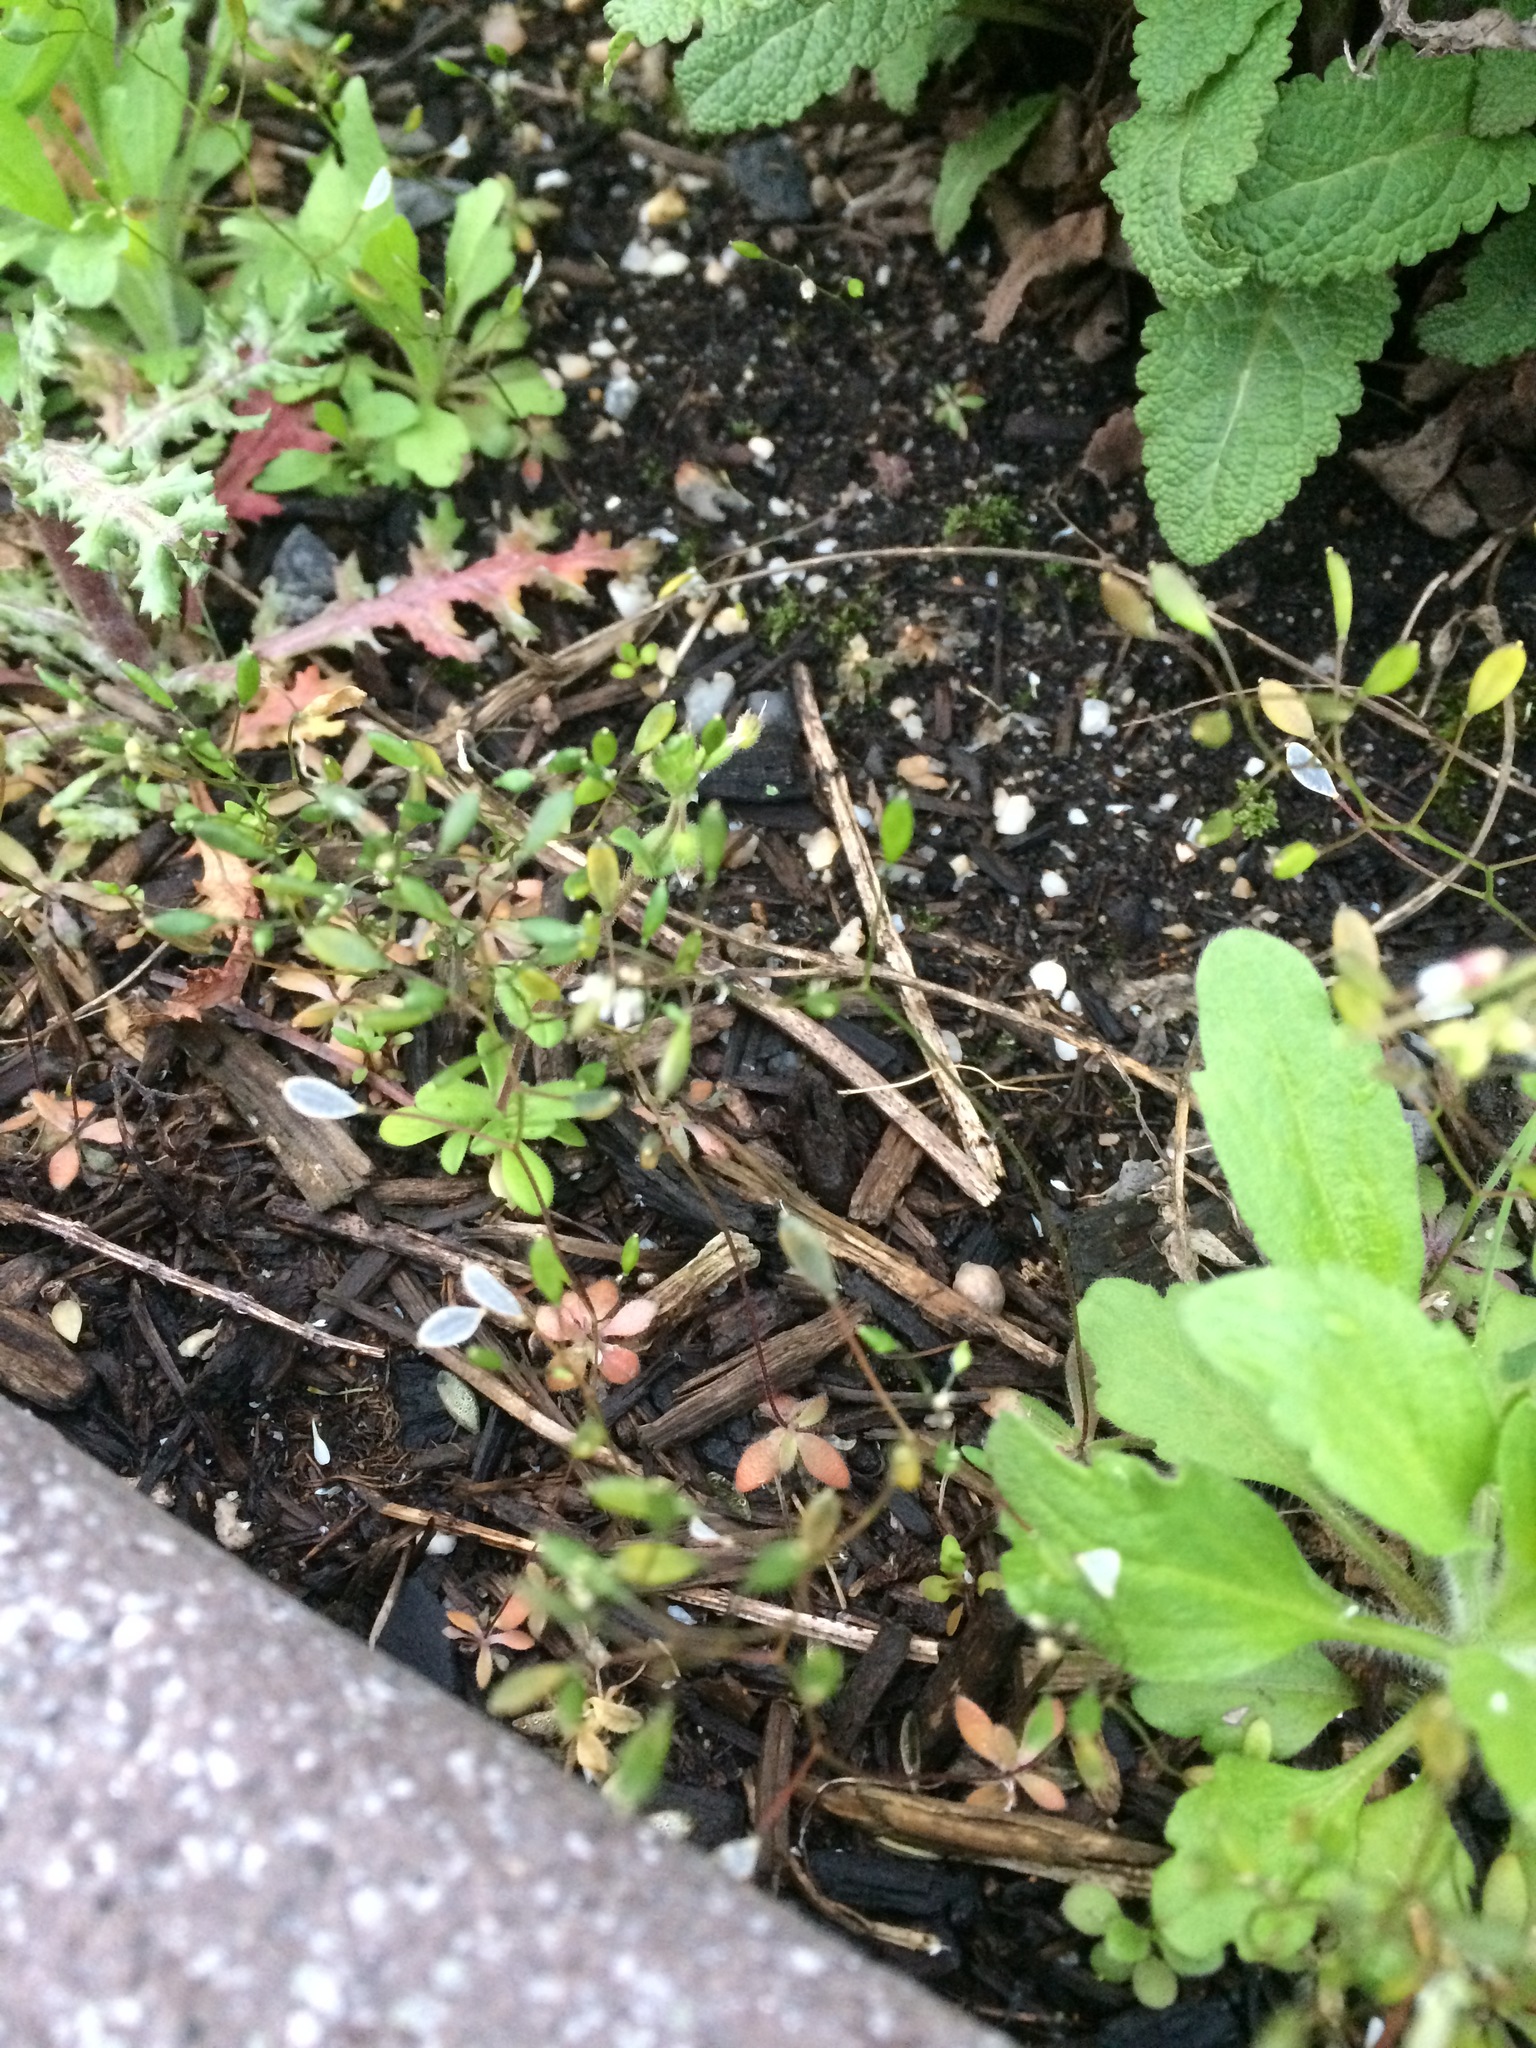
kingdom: Plantae
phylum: Tracheophyta
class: Magnoliopsida
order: Brassicales
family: Brassicaceae
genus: Draba
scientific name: Draba verna
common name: Spring draba
